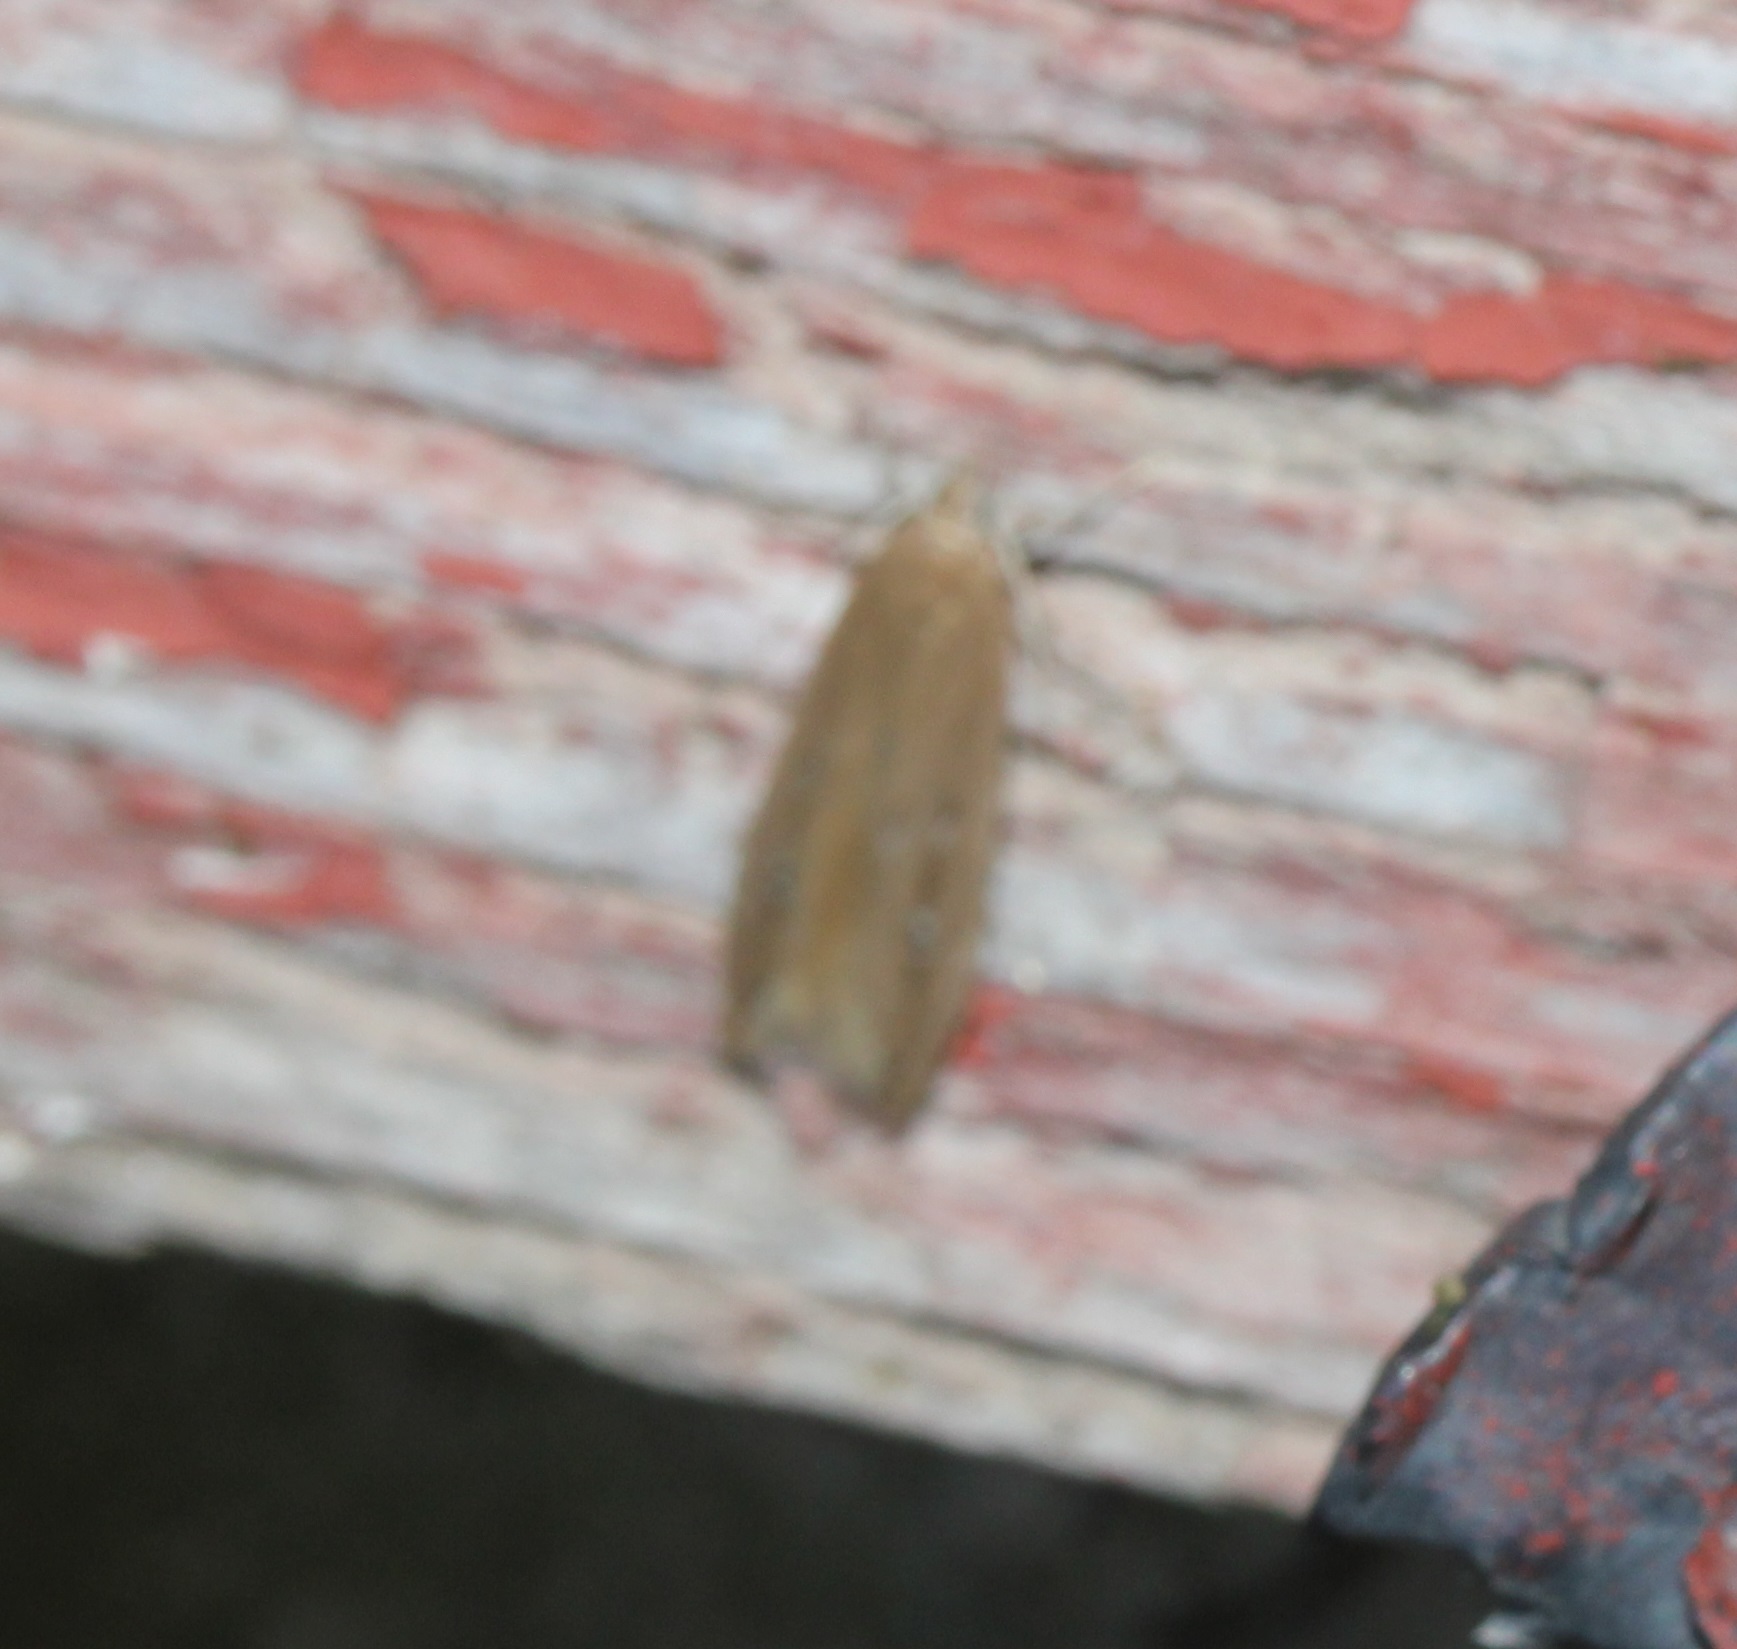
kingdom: Animalia
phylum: Arthropoda
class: Insecta
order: Lepidoptera
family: Cosmopterigidae
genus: Limnaecia
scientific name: Limnaecia phragmitella
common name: Bulrush cosmet
